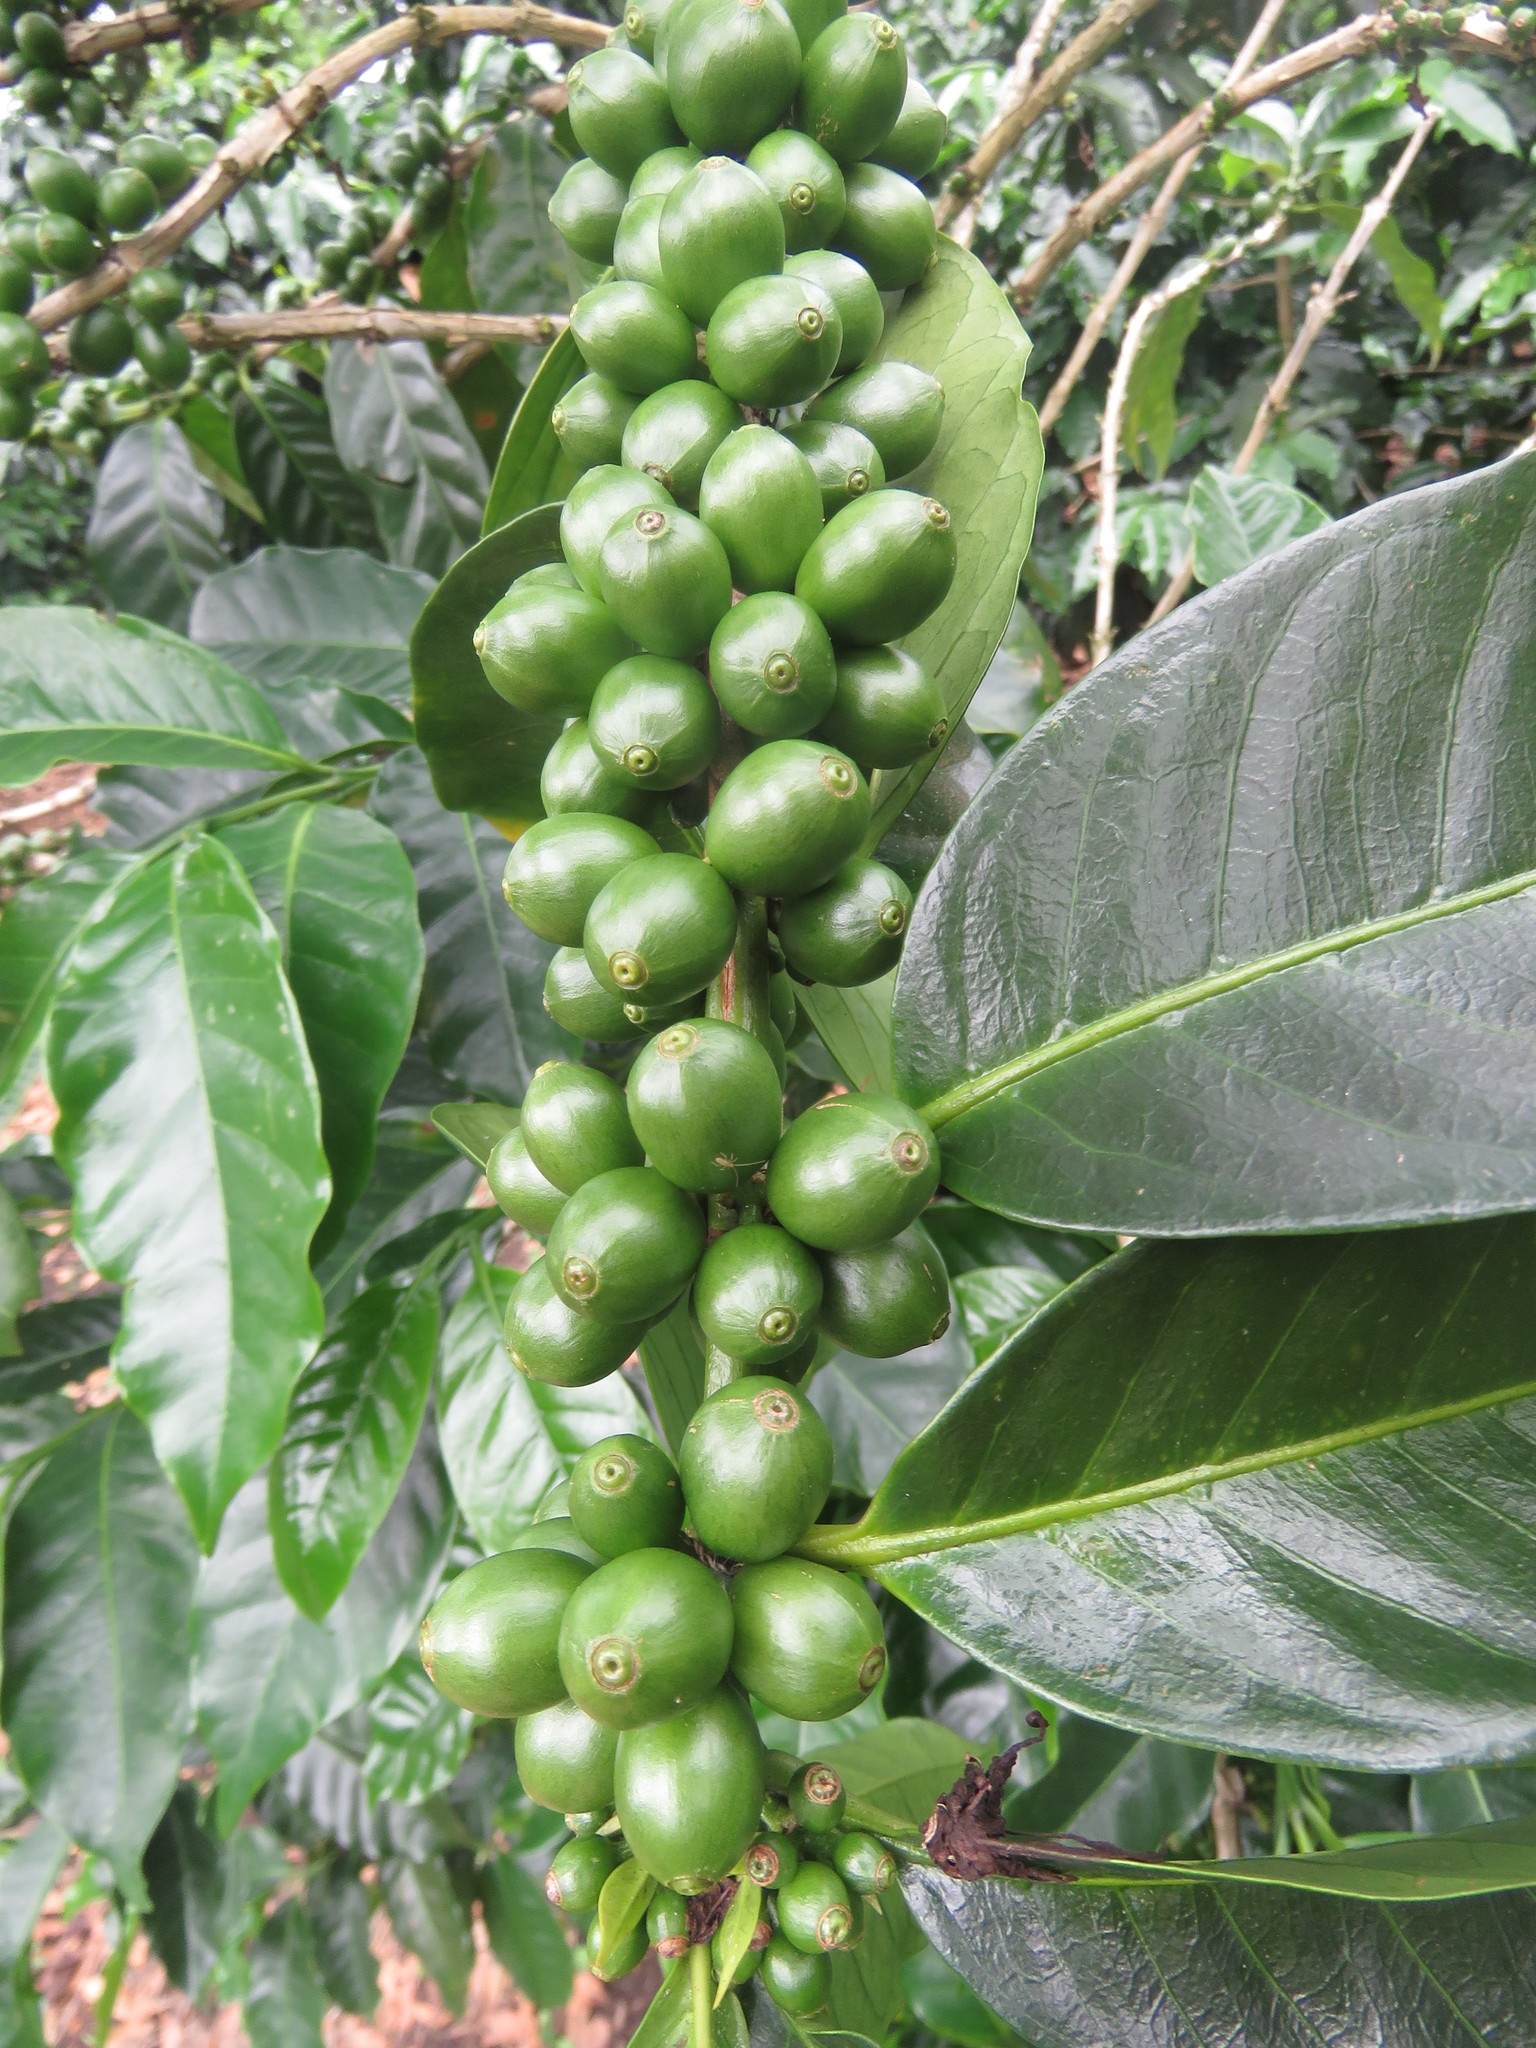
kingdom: Plantae
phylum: Tracheophyta
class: Magnoliopsida
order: Gentianales
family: Rubiaceae
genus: Coffea
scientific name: Coffea arabica
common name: Coffee
